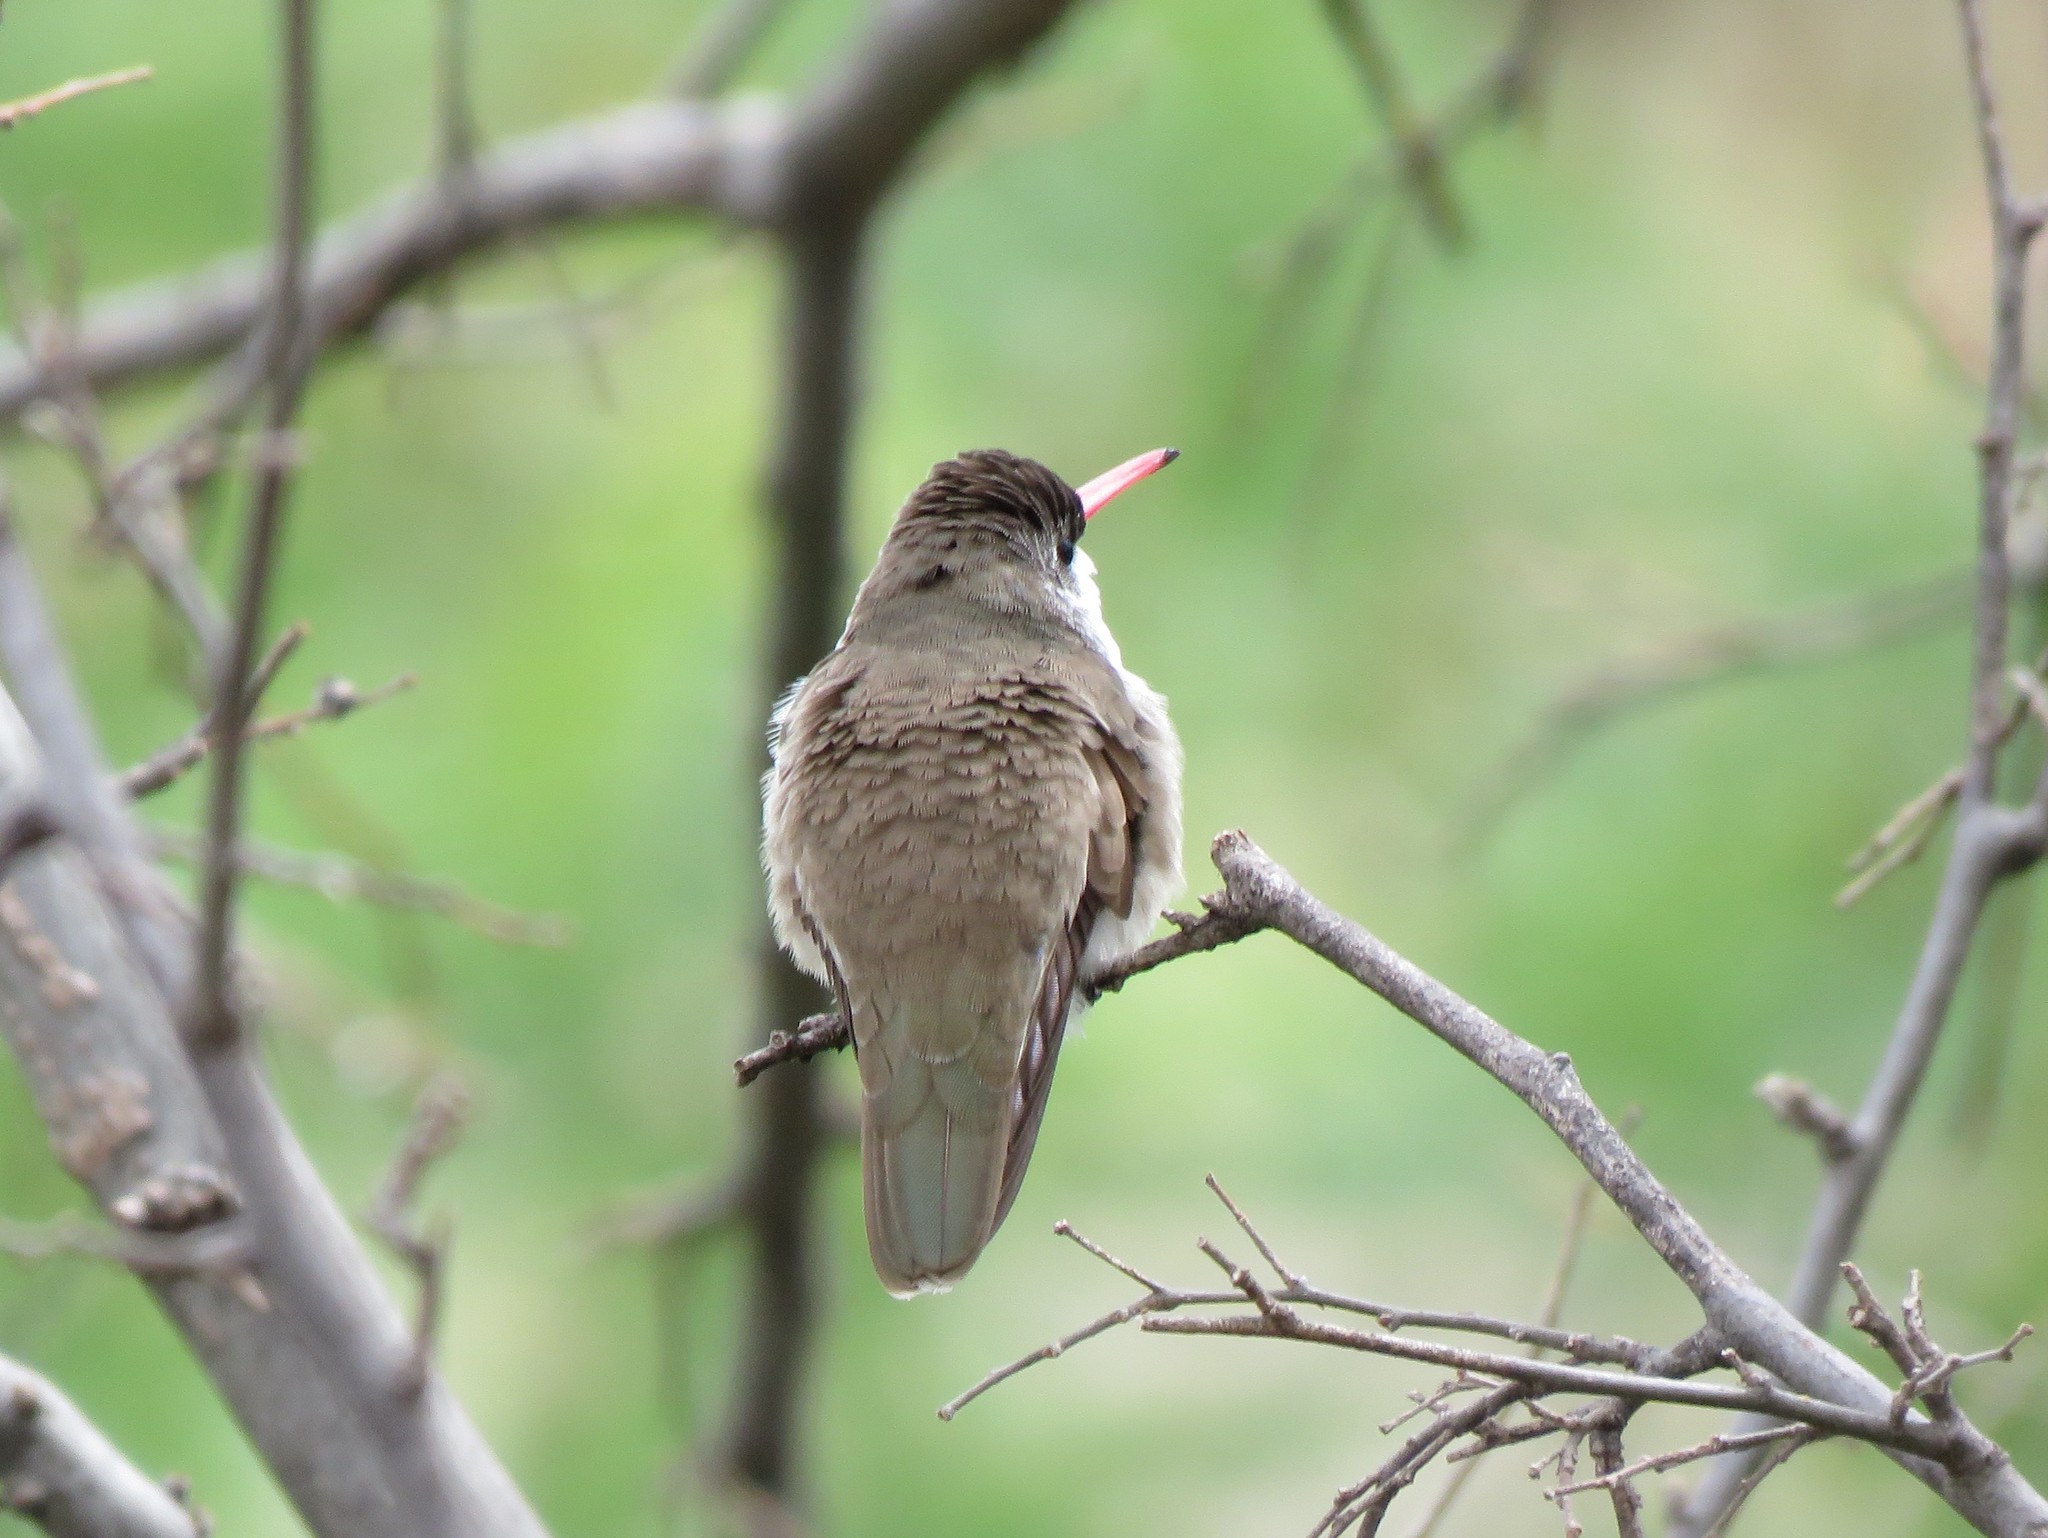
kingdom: Animalia
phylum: Chordata
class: Aves
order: Apodiformes
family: Trochilidae
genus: Leucolia
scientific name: Leucolia violiceps
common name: Violet-crowned hummingbird
